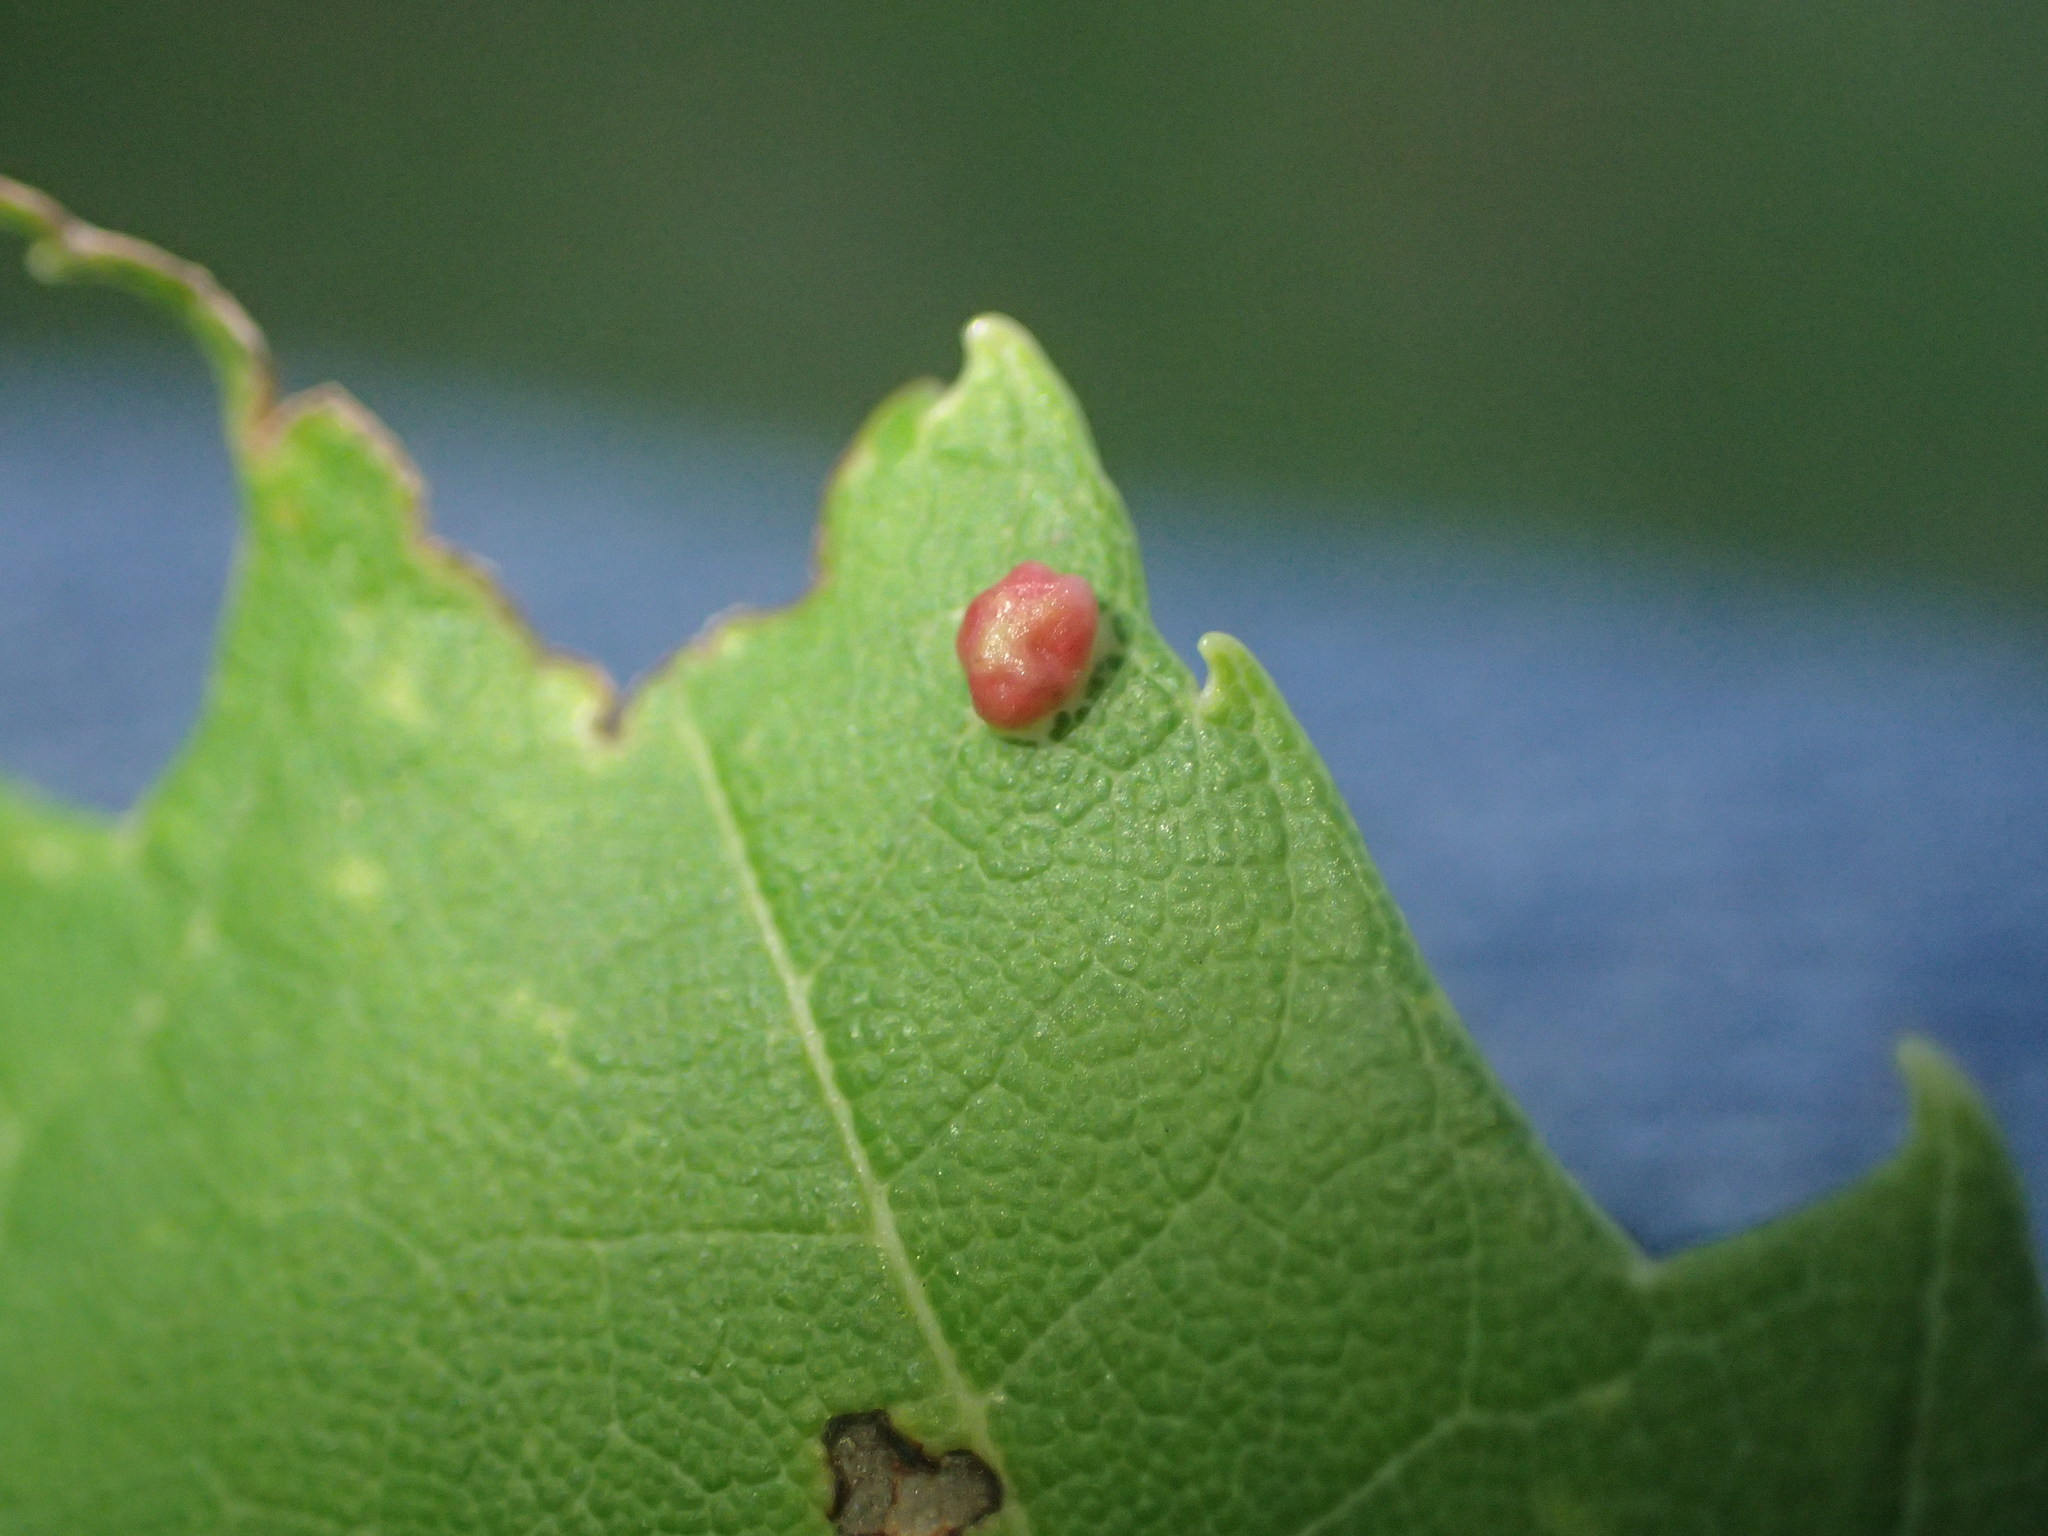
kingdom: Animalia
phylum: Arthropoda
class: Arachnida
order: Trombidiformes
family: Eriophyidae
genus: Vasates
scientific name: Vasates quadripedes
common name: Maple bladder gall mite
